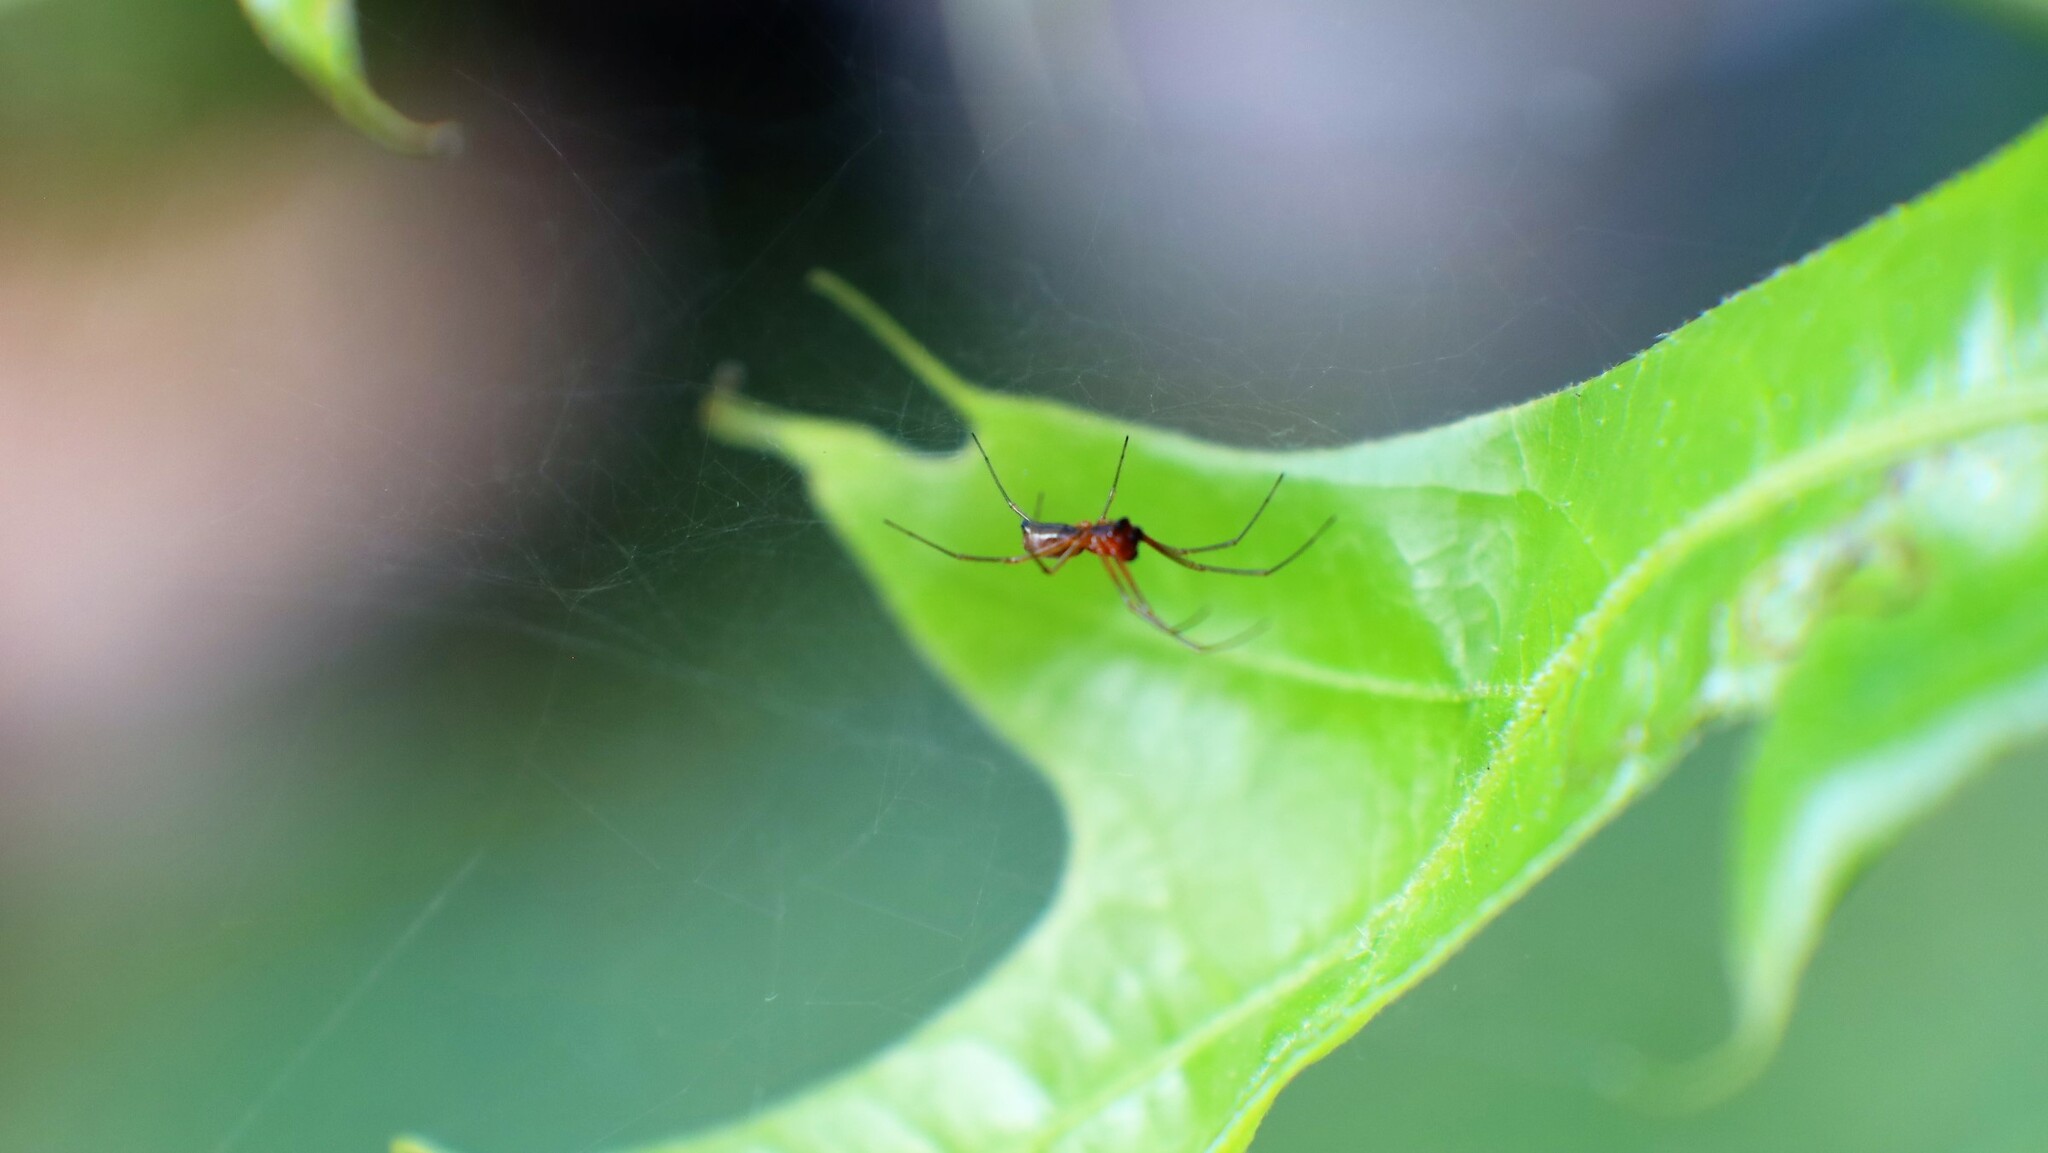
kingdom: Animalia
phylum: Arthropoda
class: Arachnida
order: Araneae
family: Linyphiidae
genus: Florinda
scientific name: Florinda coccinea
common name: Black-tailed red sheetweaver
